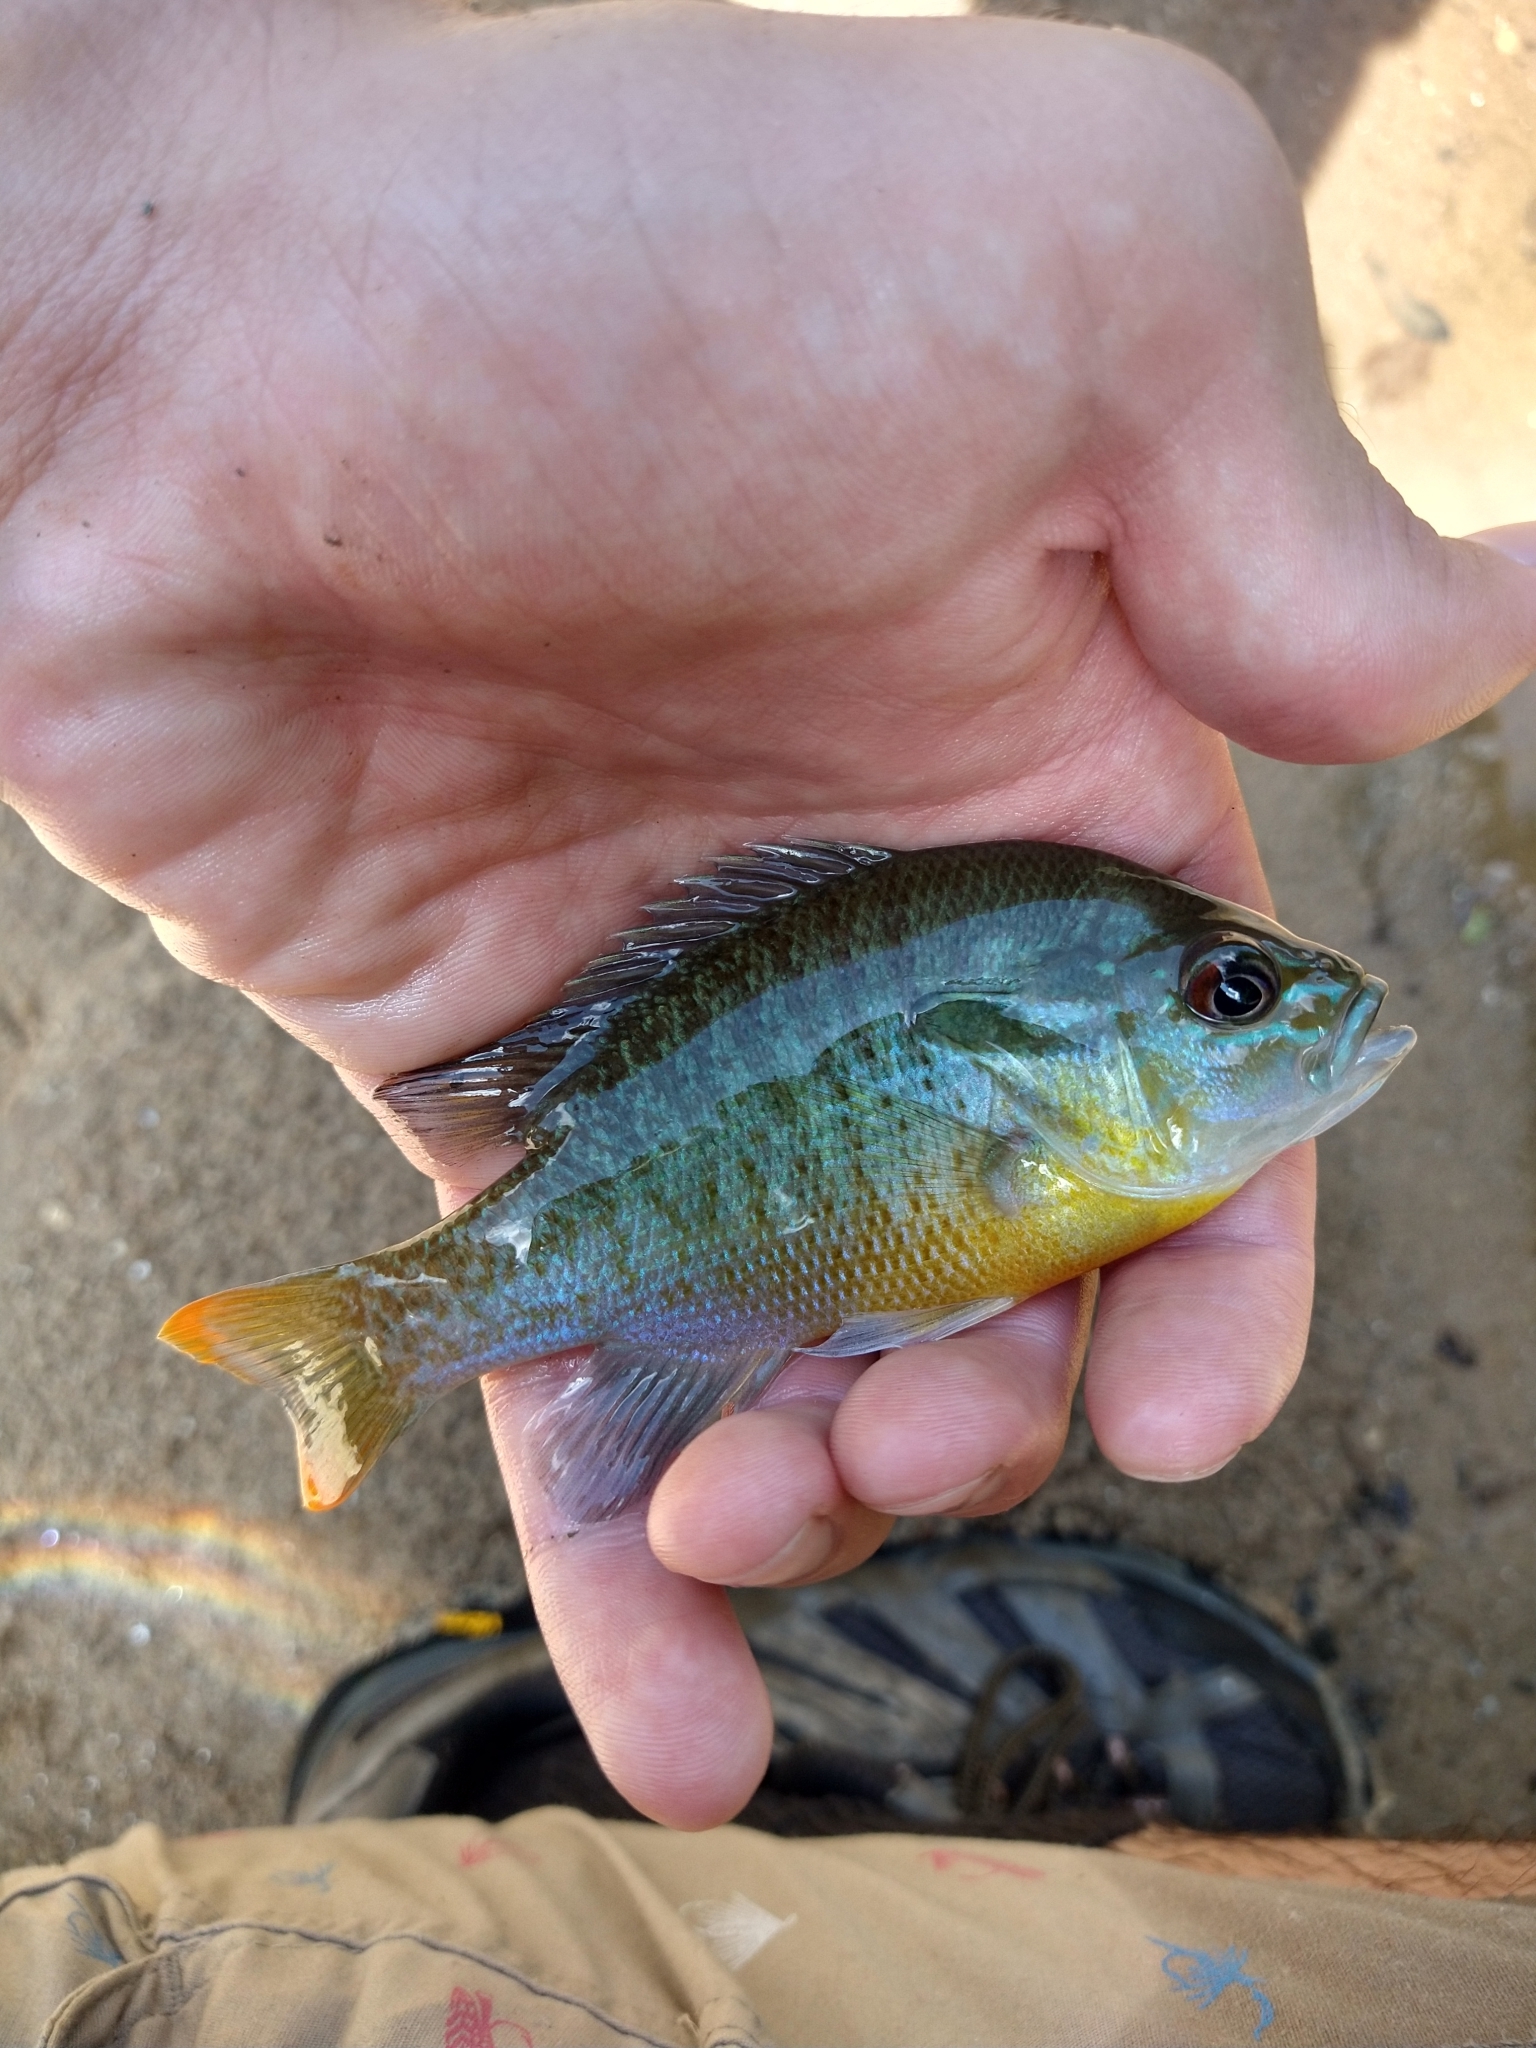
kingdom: Animalia
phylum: Chordata
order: Perciformes
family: Centrarchidae
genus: Lepomis
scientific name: Lepomis auritus
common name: Redbreast sunfish
